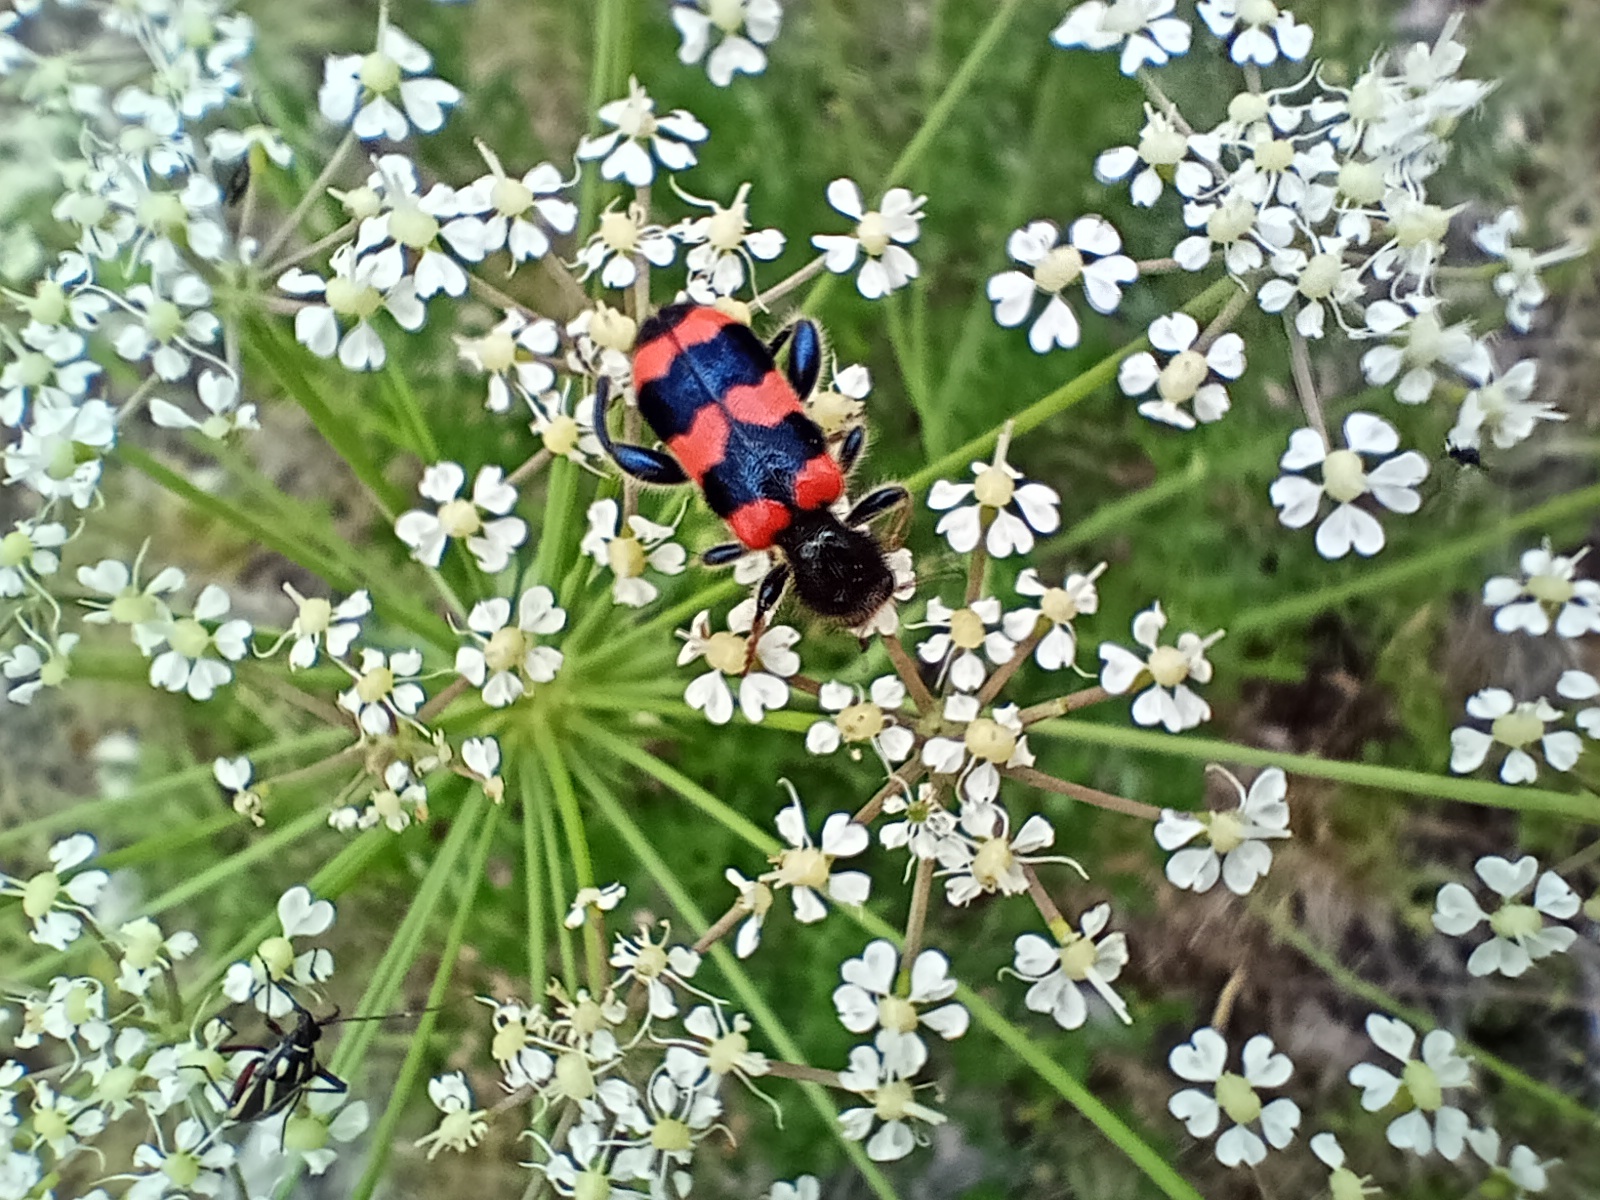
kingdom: Animalia
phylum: Arthropoda
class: Insecta
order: Coleoptera
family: Cleridae
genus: Trichodes
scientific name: Trichodes apiarius
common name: Bee-eating beetle
